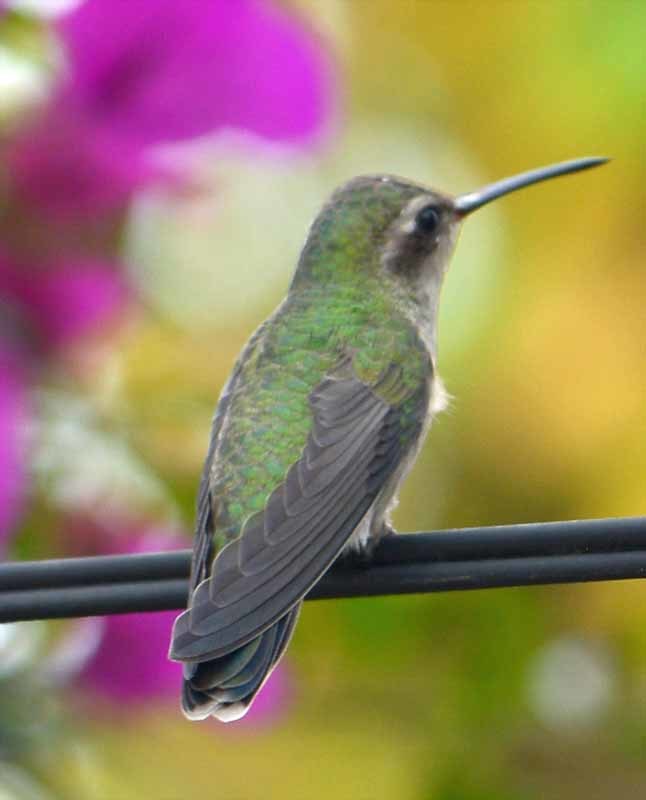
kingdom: Animalia
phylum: Chordata
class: Aves
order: Apodiformes
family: Trochilidae
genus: Cynanthus
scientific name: Cynanthus latirostris
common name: Broad-billed hummingbird
